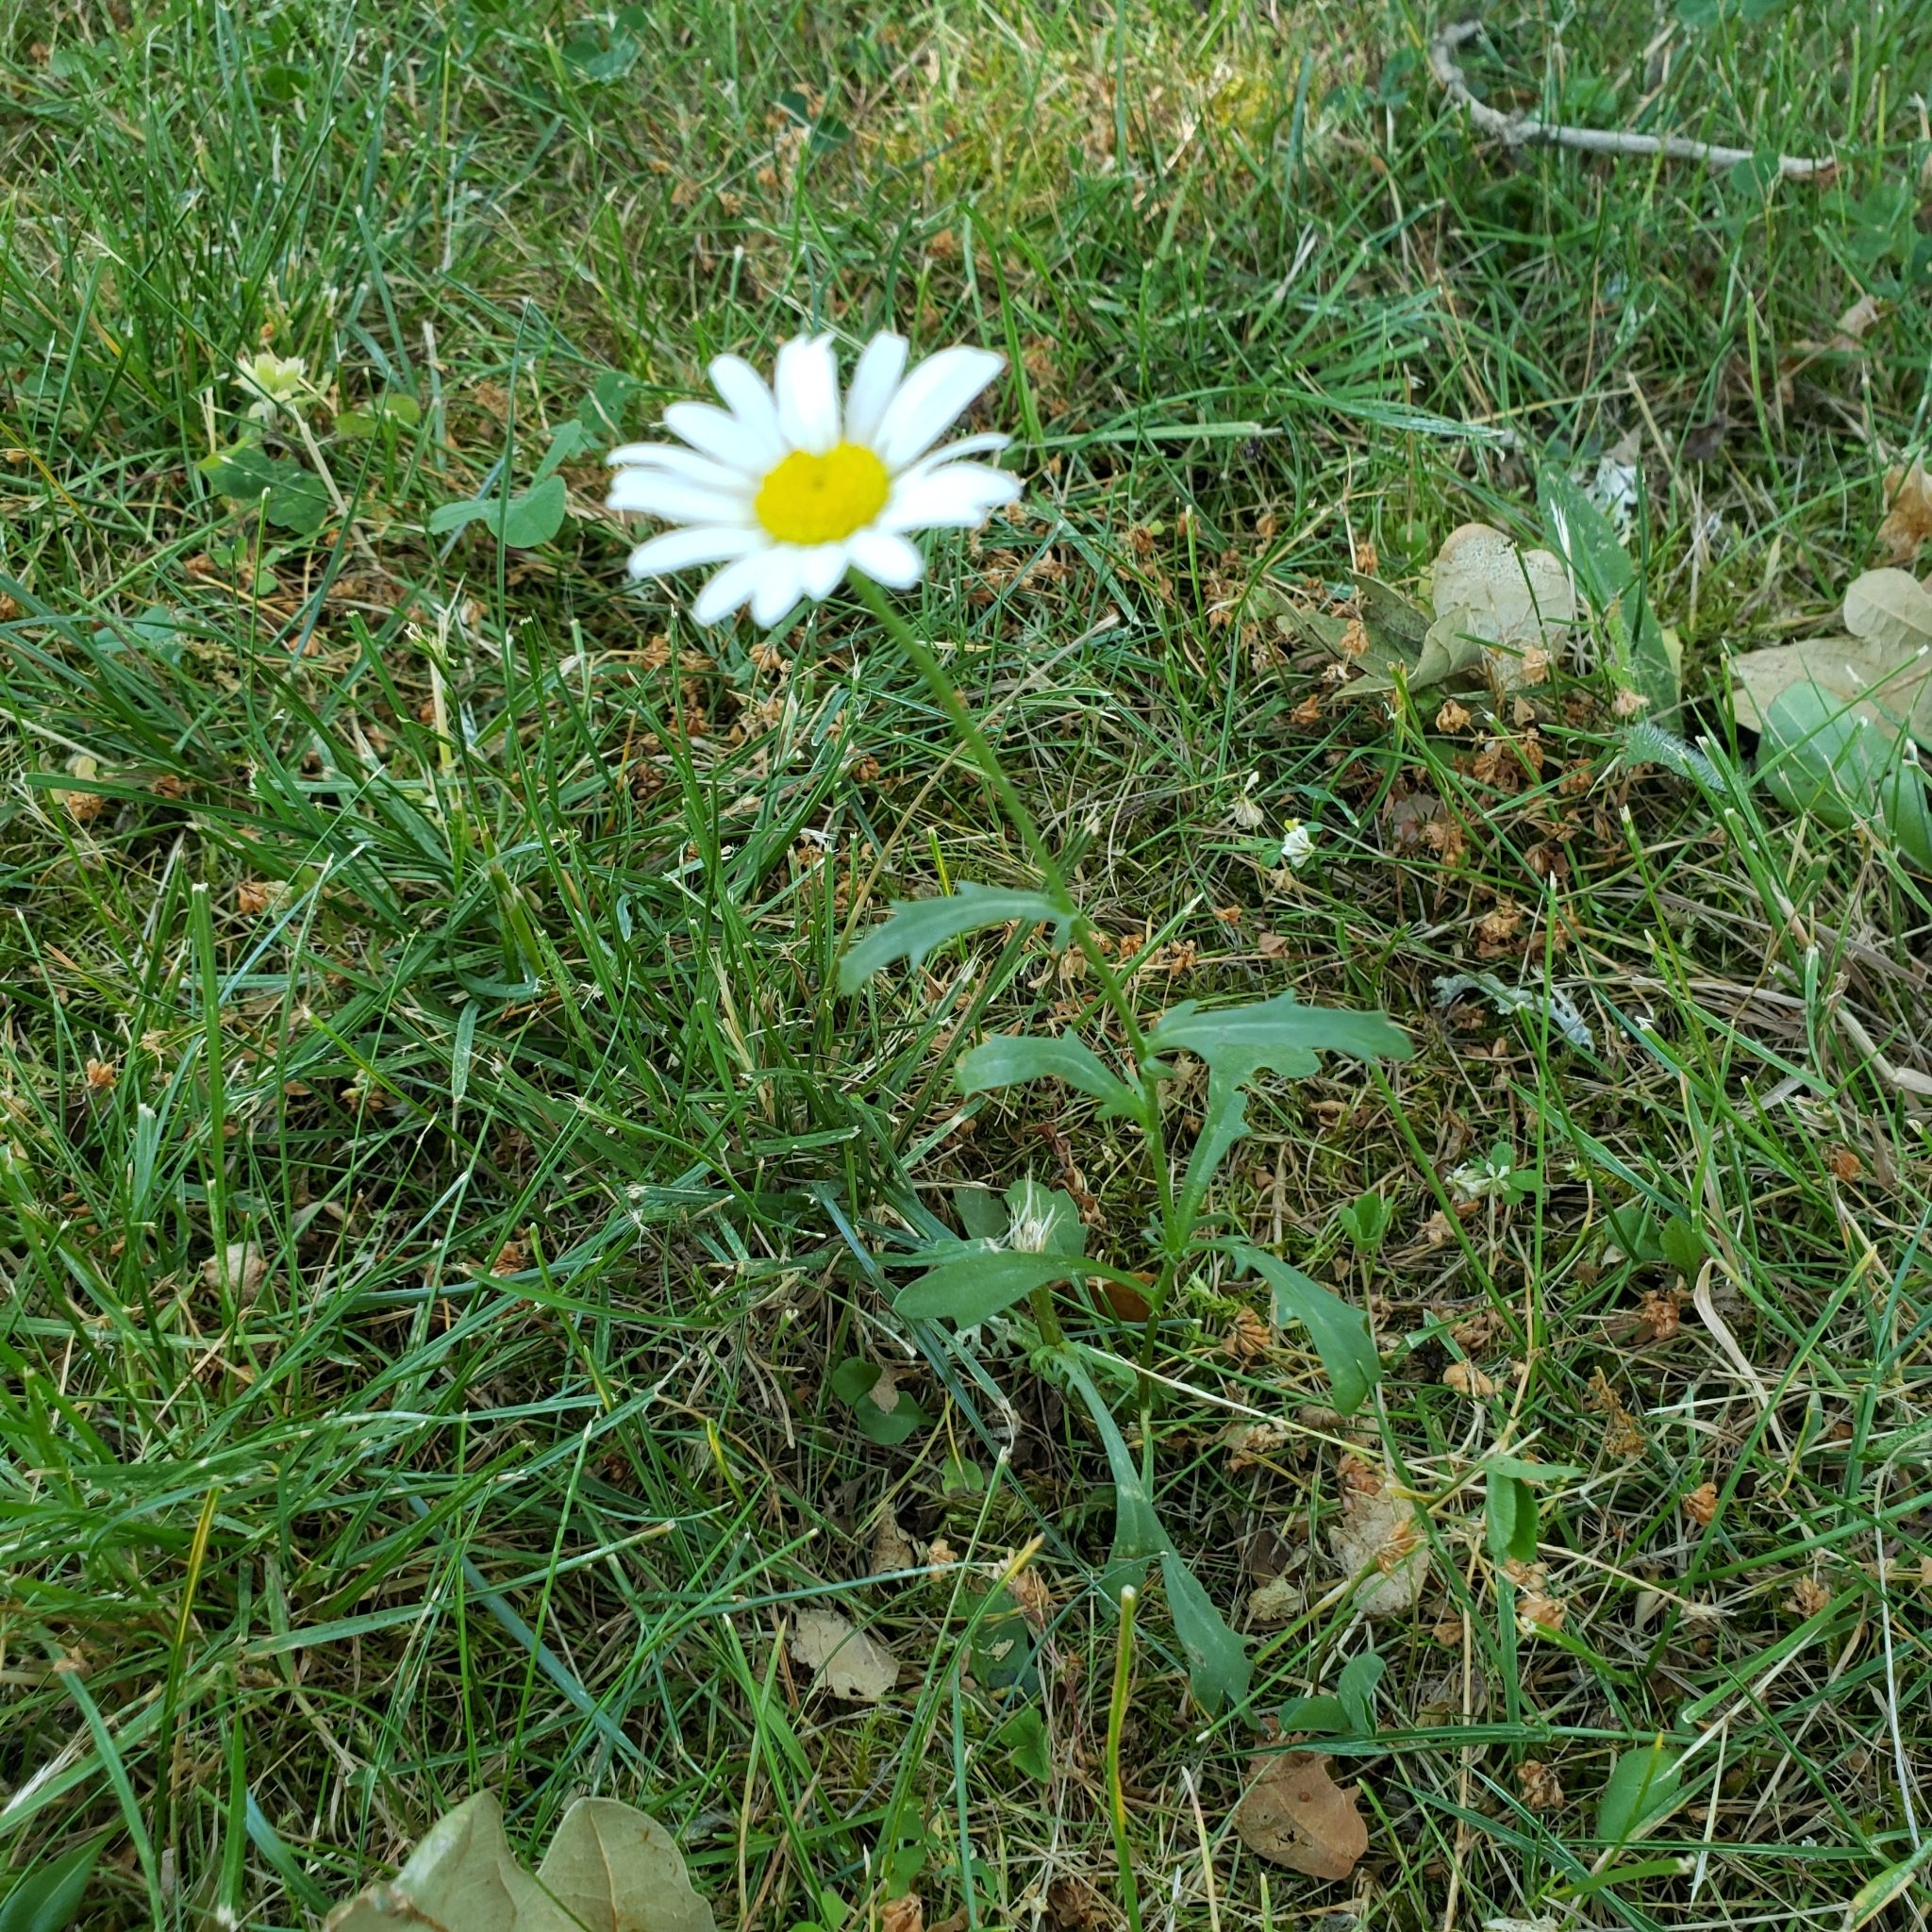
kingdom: Plantae
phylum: Tracheophyta
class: Magnoliopsida
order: Asterales
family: Asteraceae
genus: Leucanthemum
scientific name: Leucanthemum vulgare
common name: Oxeye daisy
